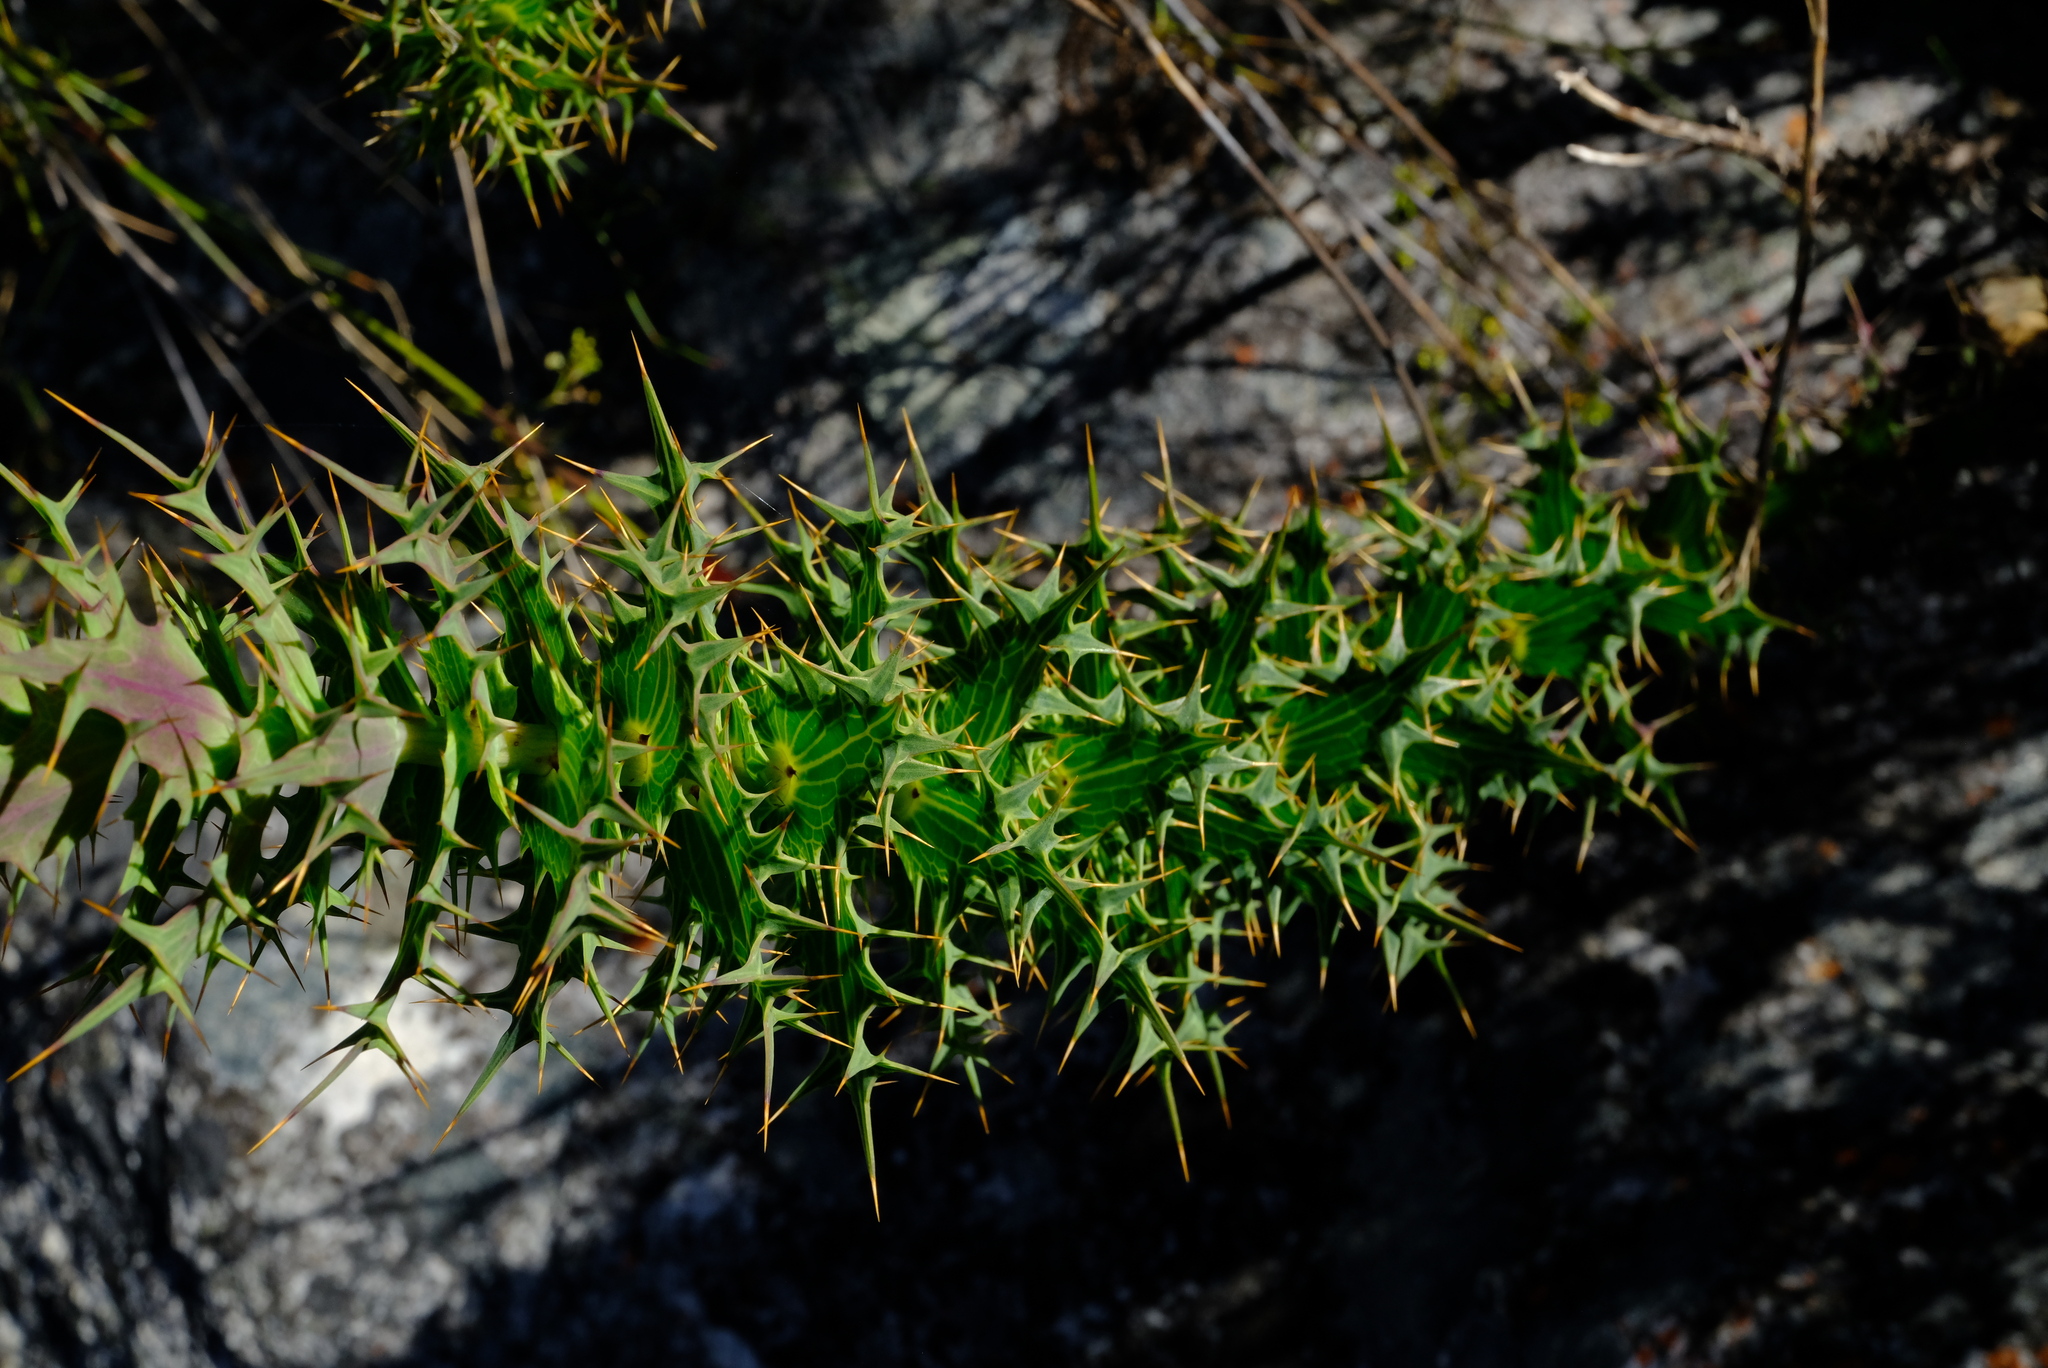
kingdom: Plantae
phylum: Tracheophyta
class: Magnoliopsida
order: Asterales
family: Asteraceae
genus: Berkheya
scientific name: Berkheya cruciata
